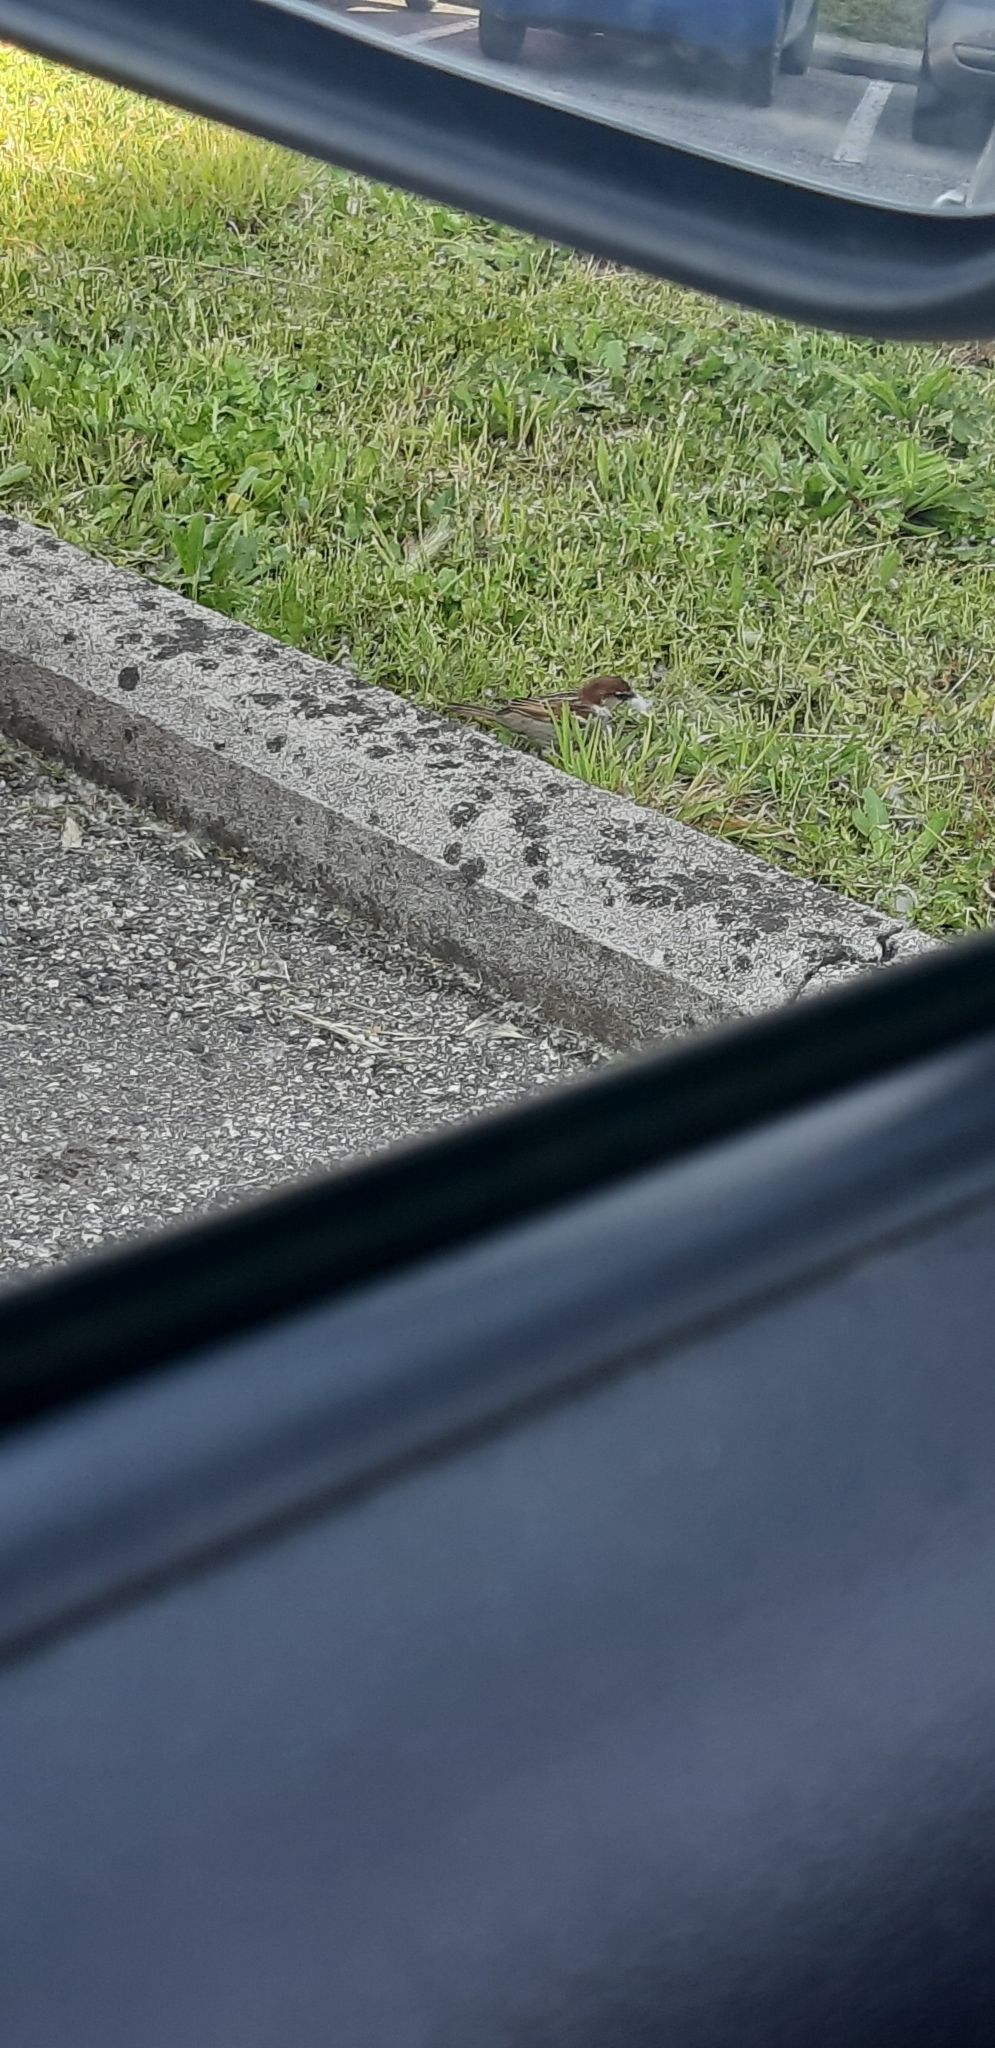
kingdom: Animalia
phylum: Chordata
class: Aves
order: Passeriformes
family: Passeridae
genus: Passer
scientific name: Passer italiae
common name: Italian sparrow
